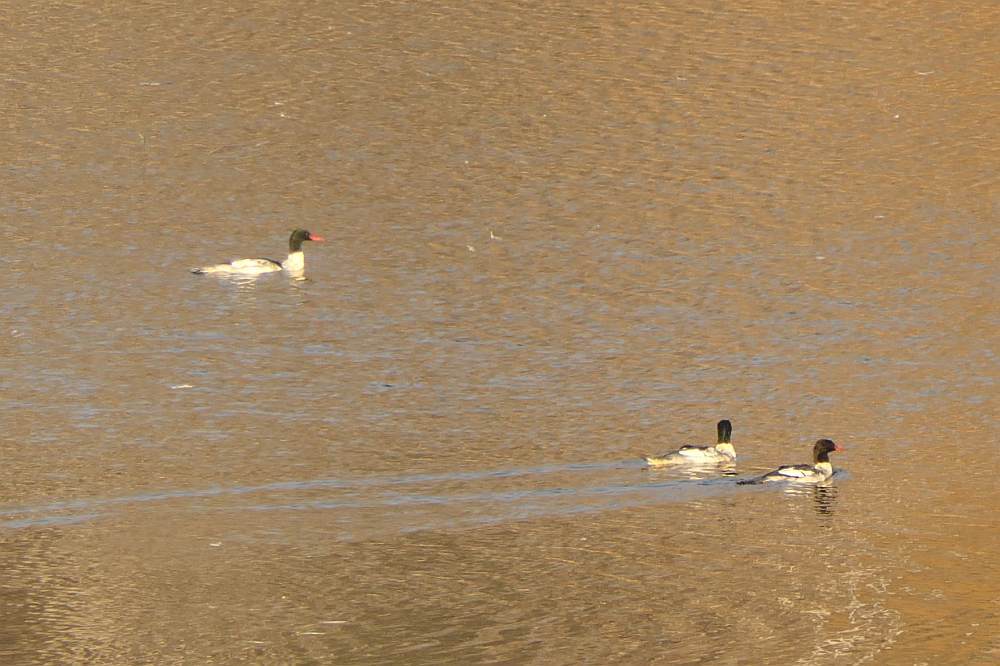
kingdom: Animalia
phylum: Chordata
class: Aves
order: Anseriformes
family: Anatidae
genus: Mergus
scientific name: Mergus merganser
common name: Common merganser
